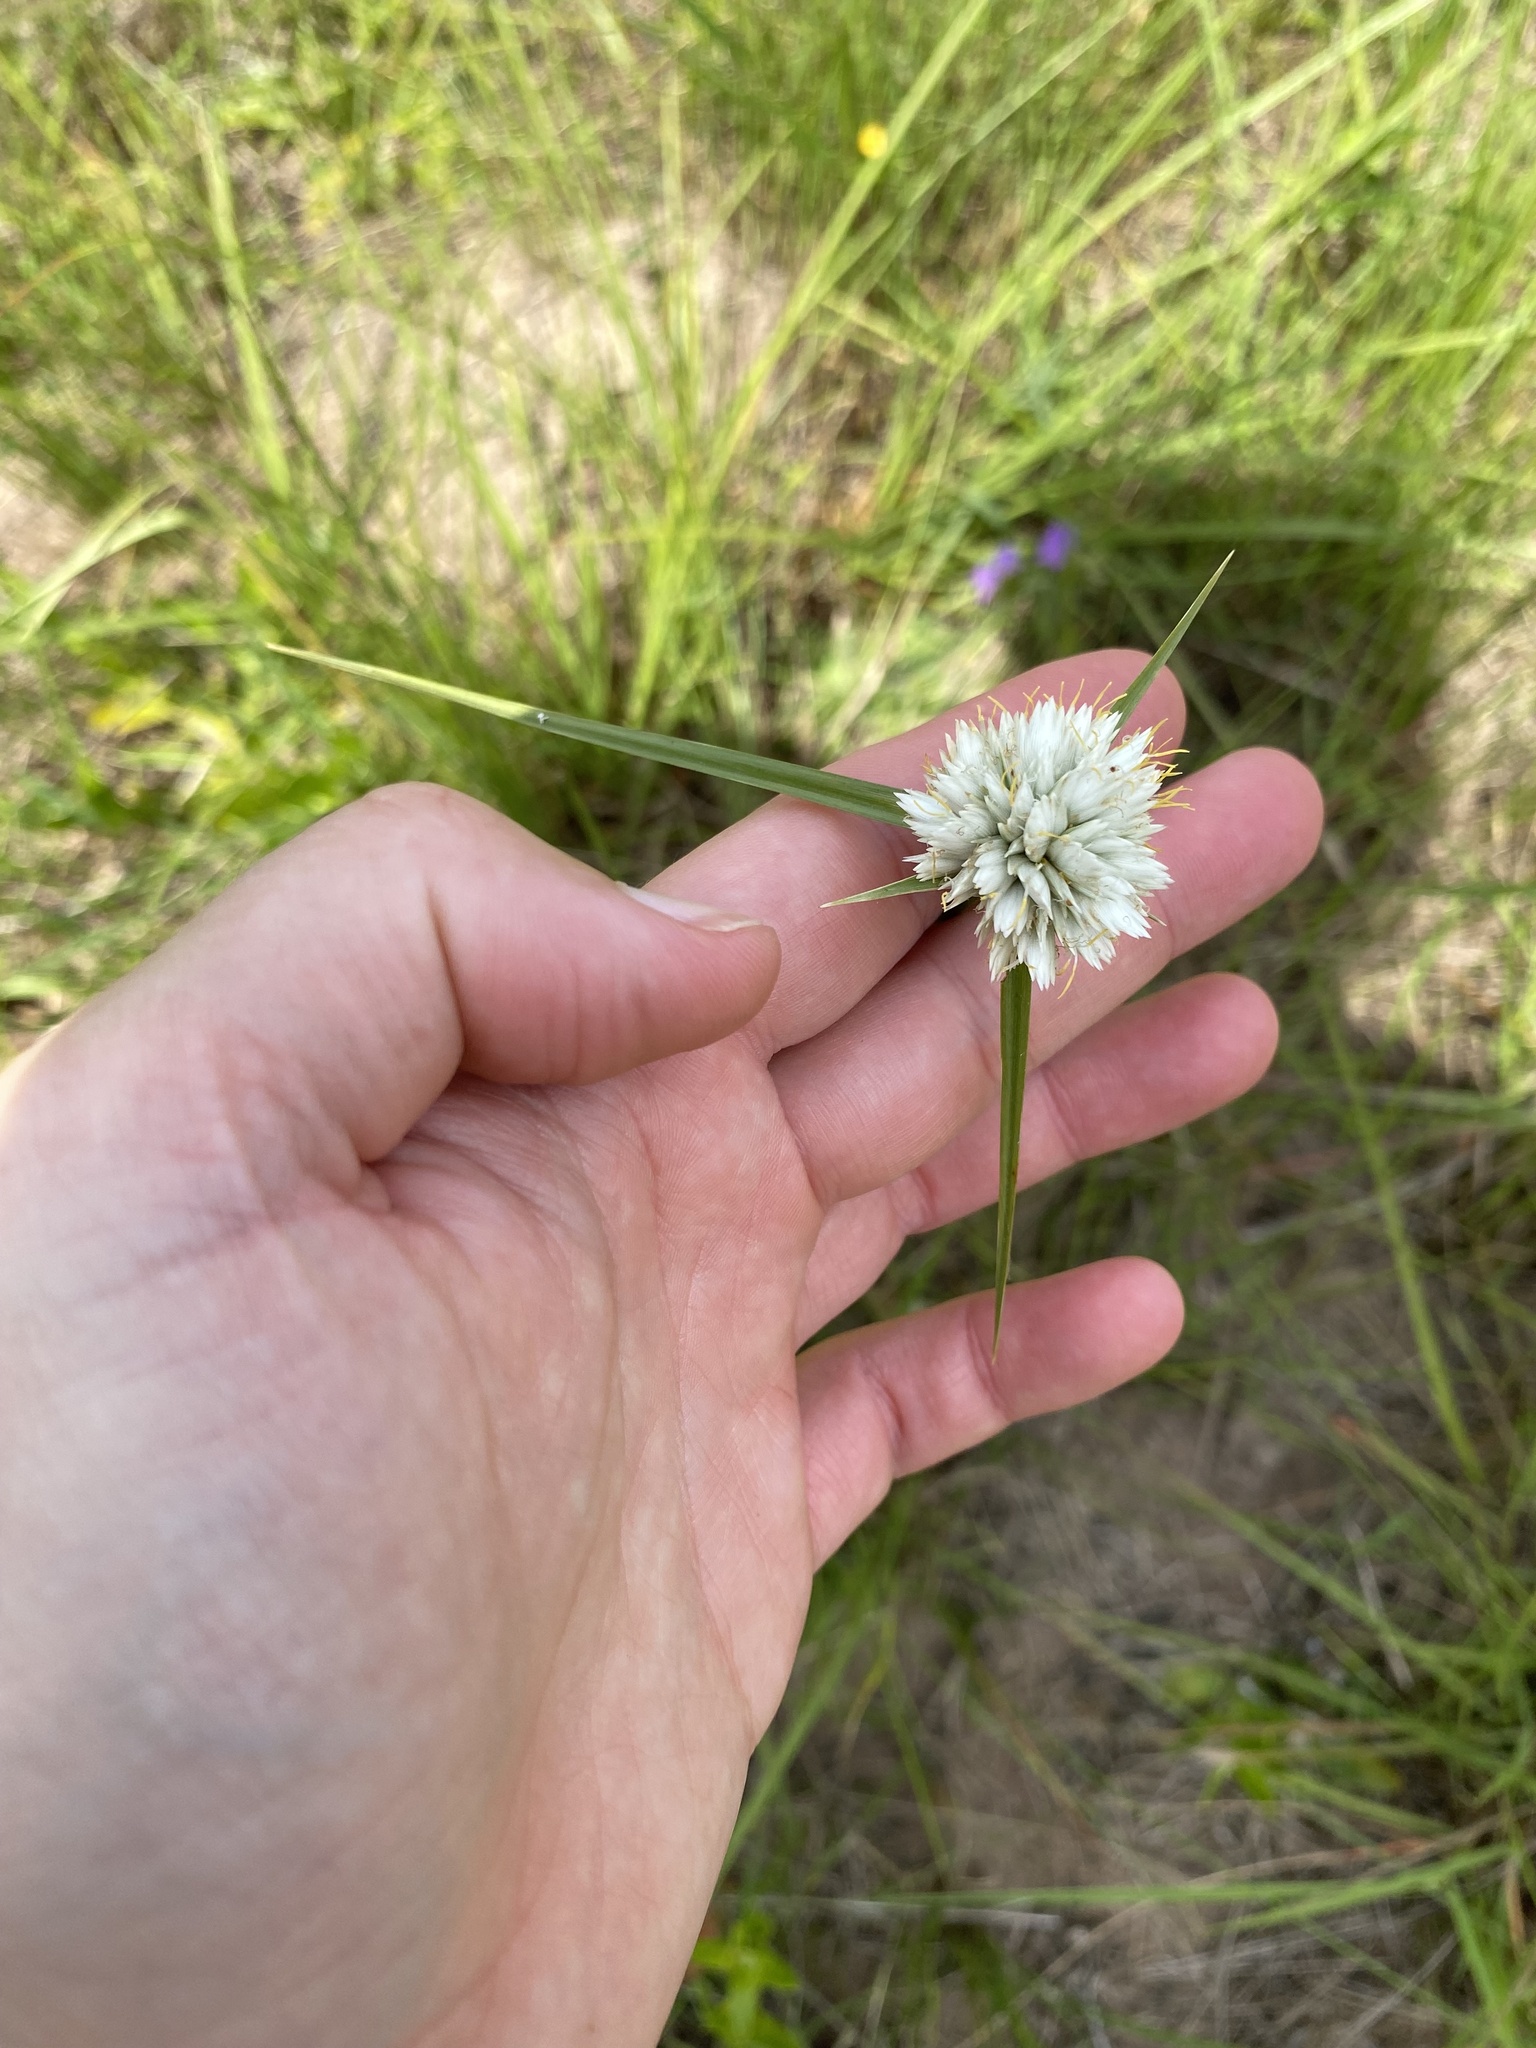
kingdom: Plantae
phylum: Tracheophyta
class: Liliopsida
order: Poales
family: Cyperaceae
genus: Cyperus
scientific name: Cyperus niveus
